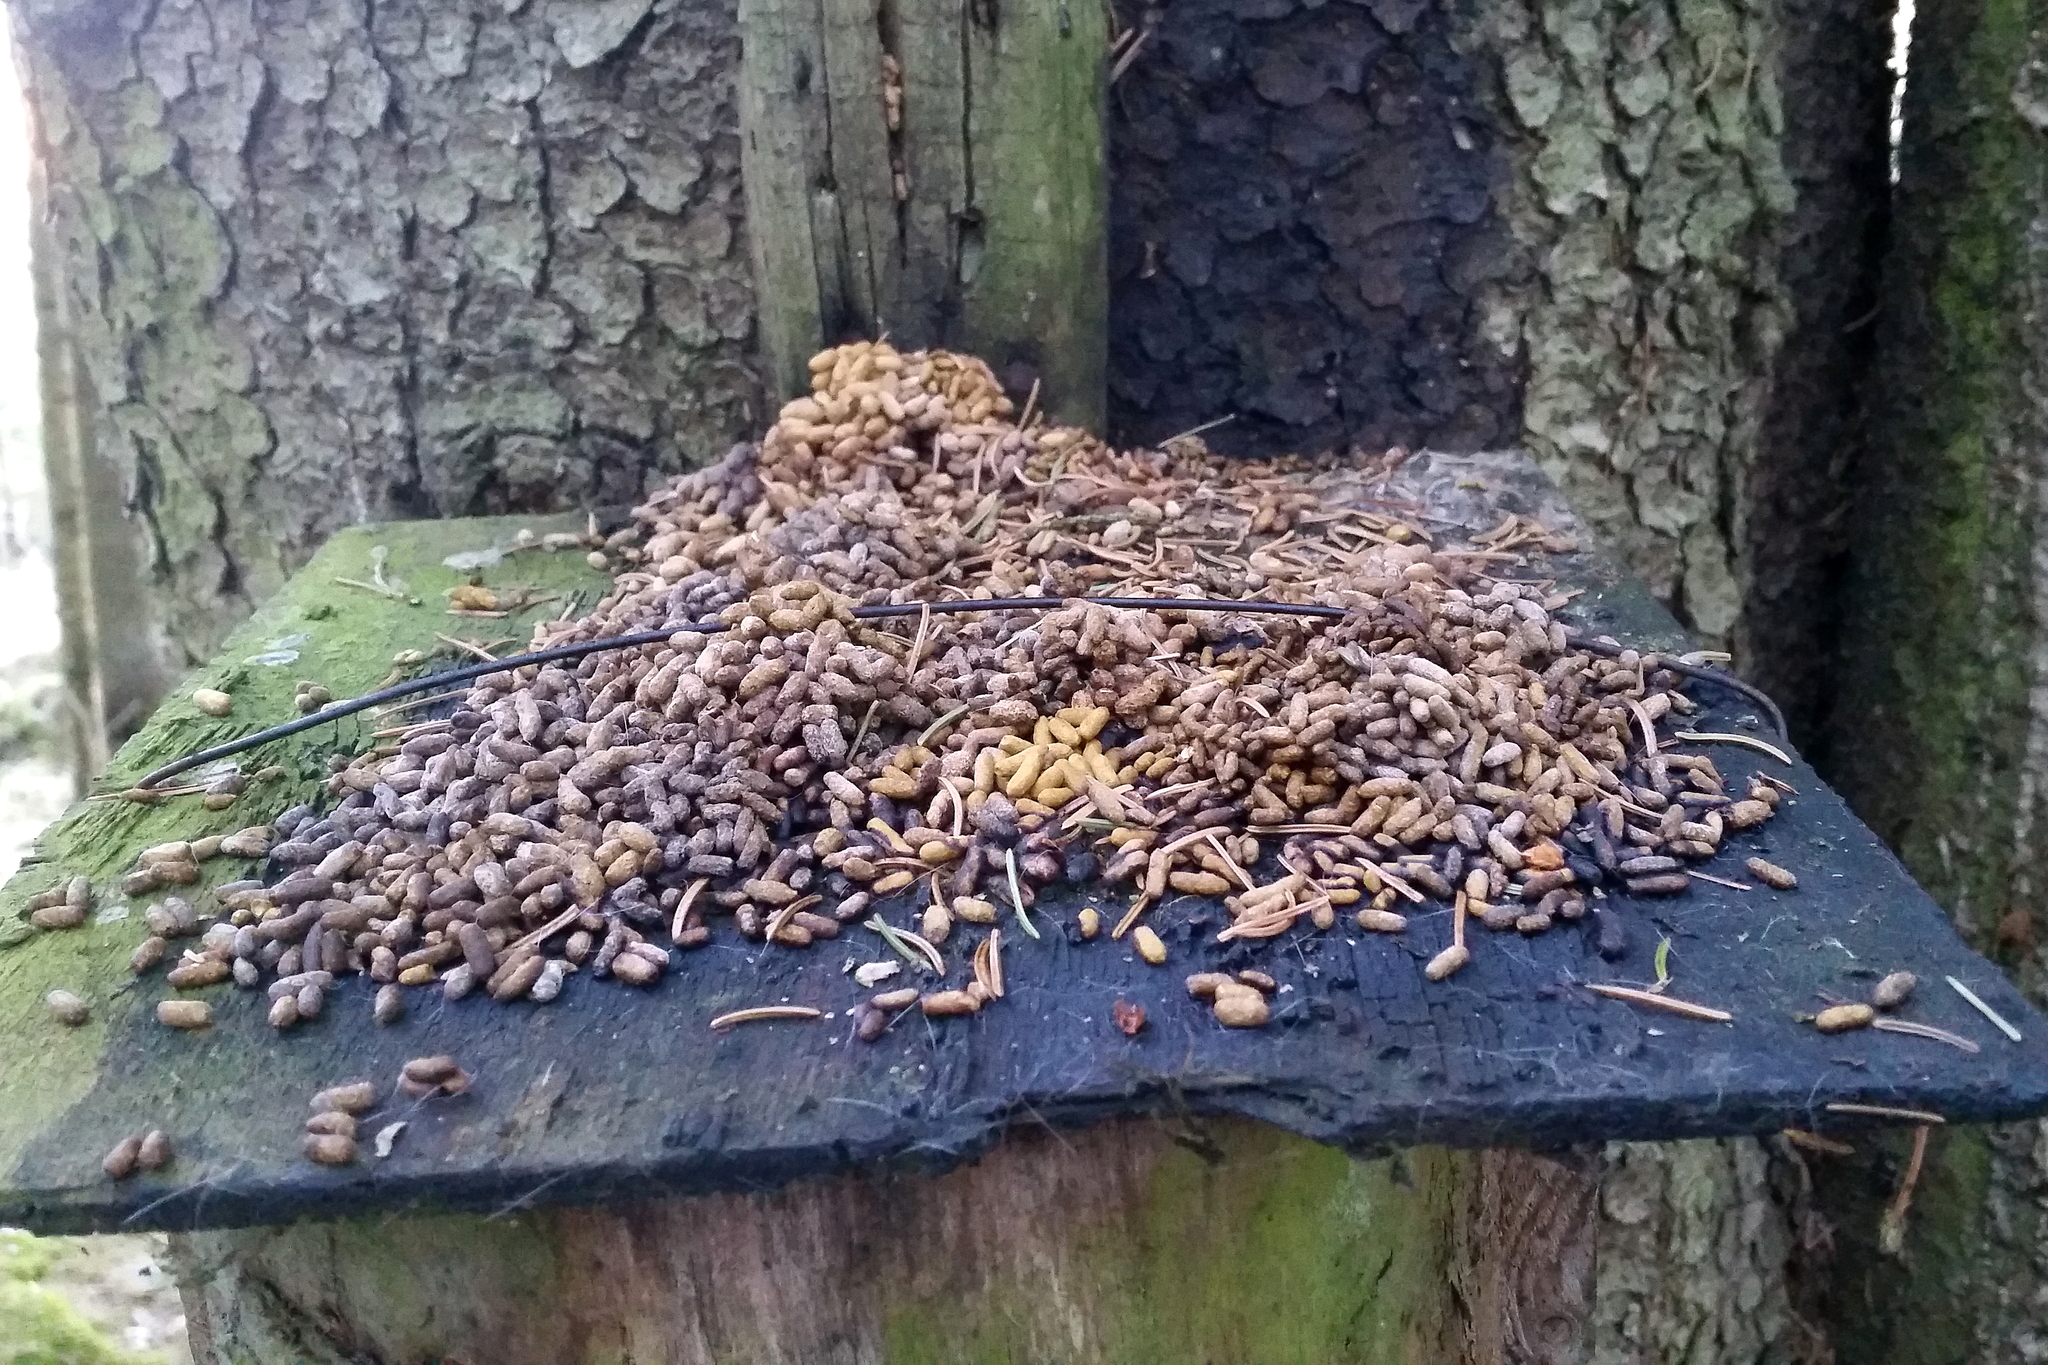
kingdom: Animalia
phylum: Chordata
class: Mammalia
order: Rodentia
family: Sciuridae
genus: Pteromys
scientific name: Pteromys volans
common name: Siberian flying squirrel
